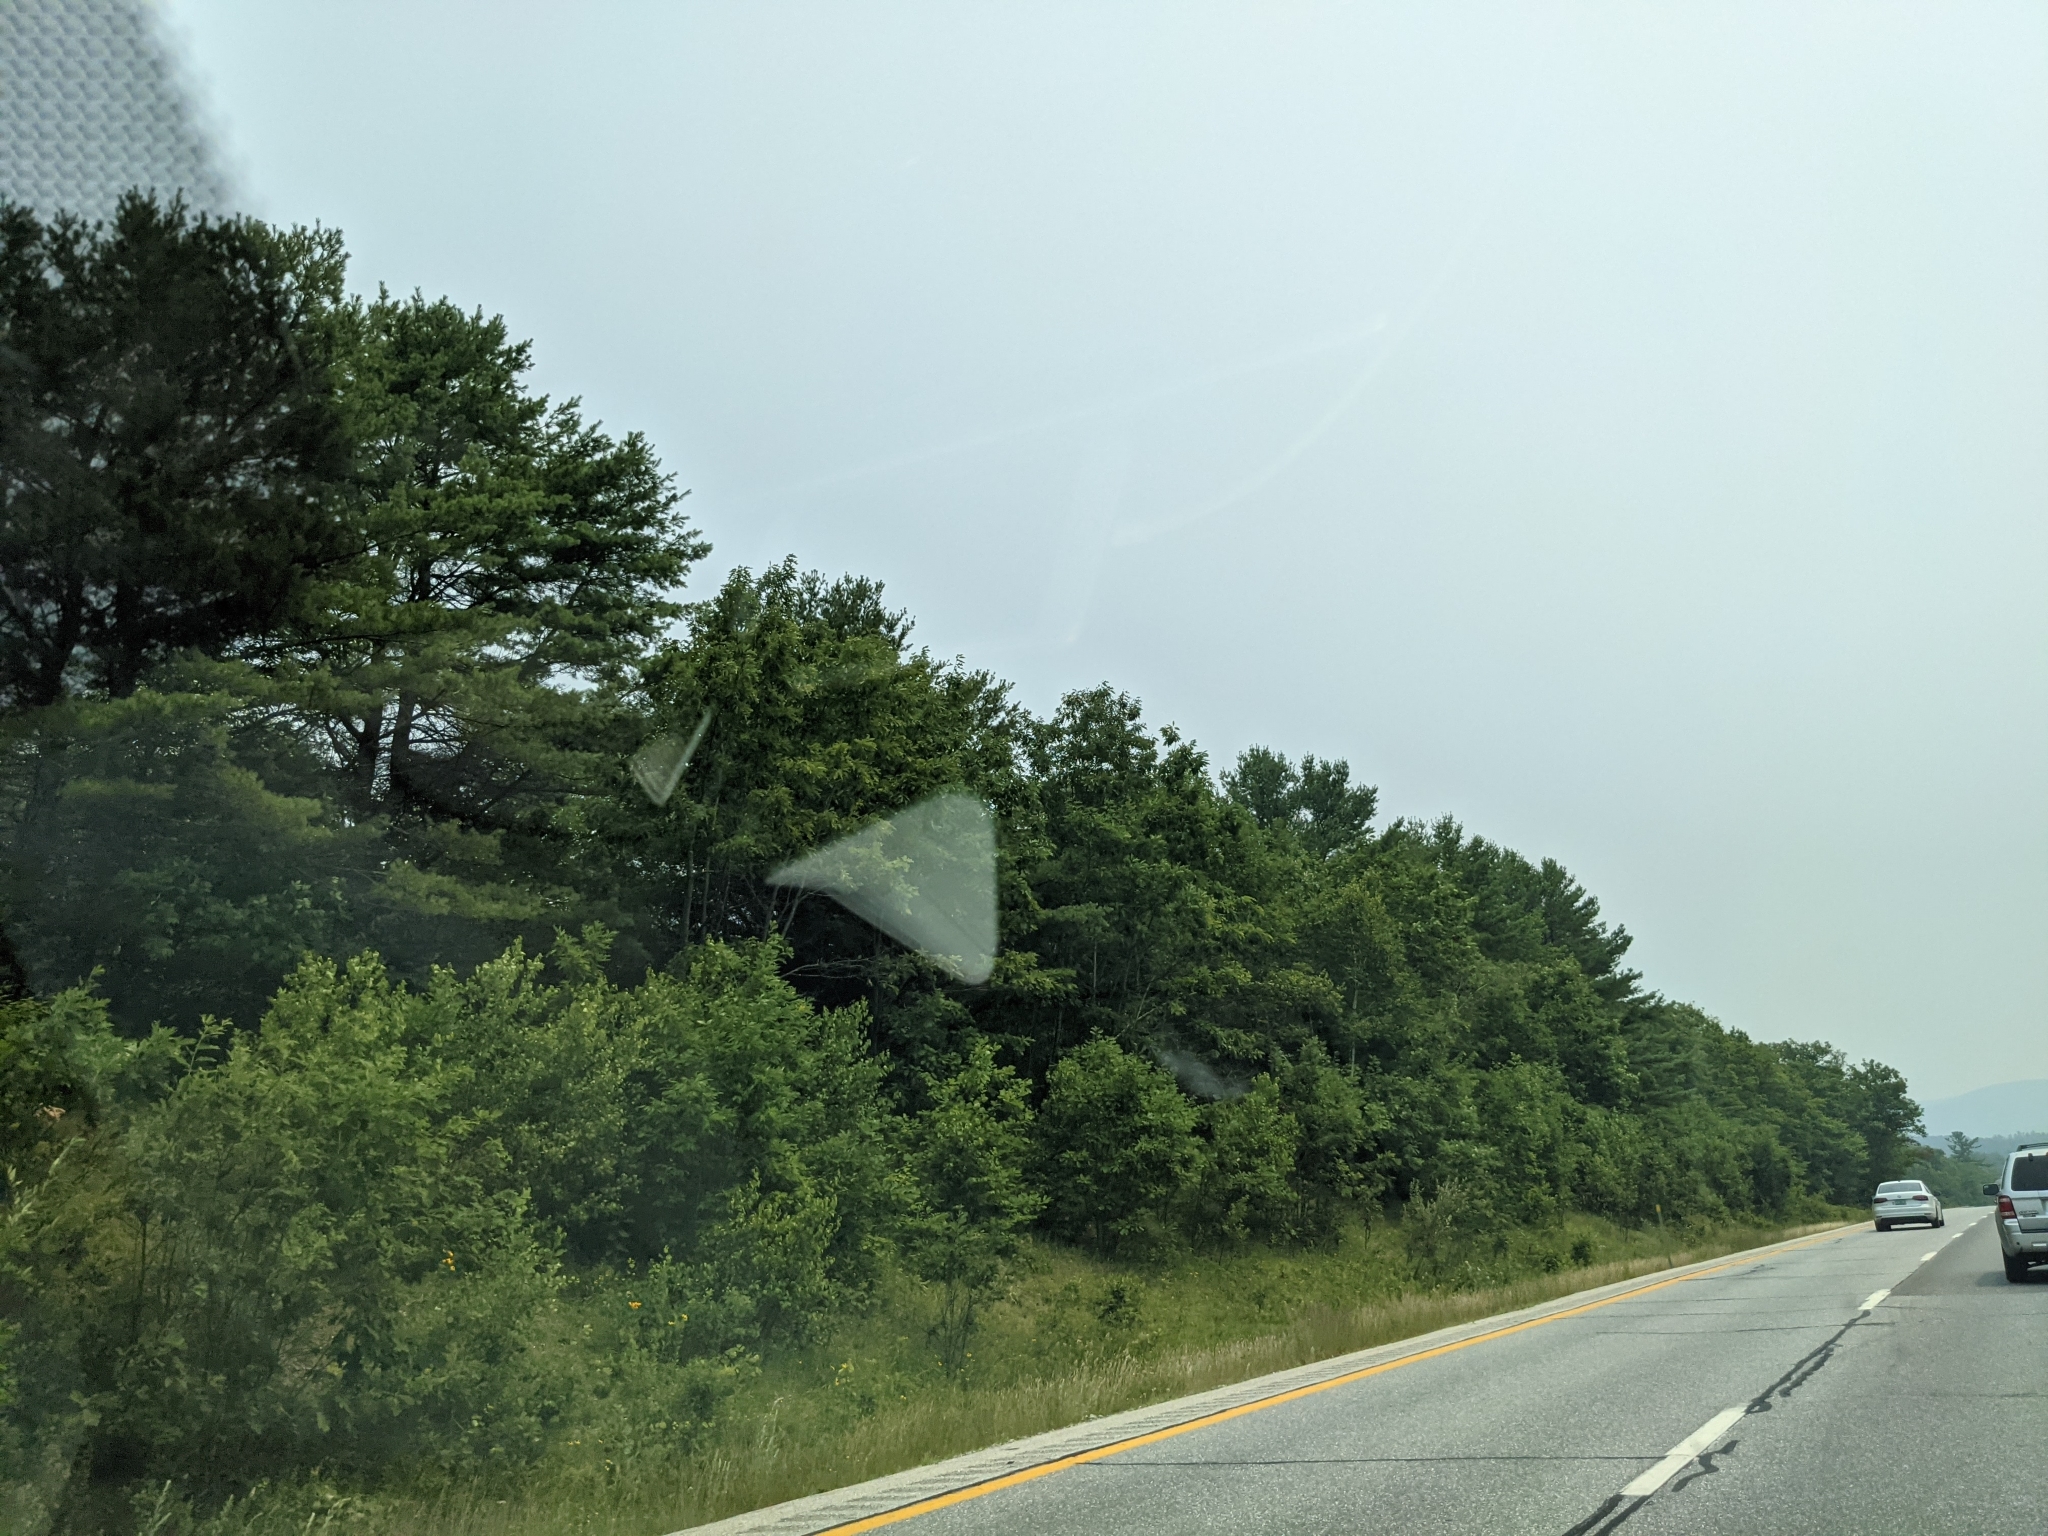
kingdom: Plantae
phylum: Tracheophyta
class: Pinopsida
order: Pinales
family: Pinaceae
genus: Pinus
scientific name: Pinus strobus
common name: Weymouth pine
